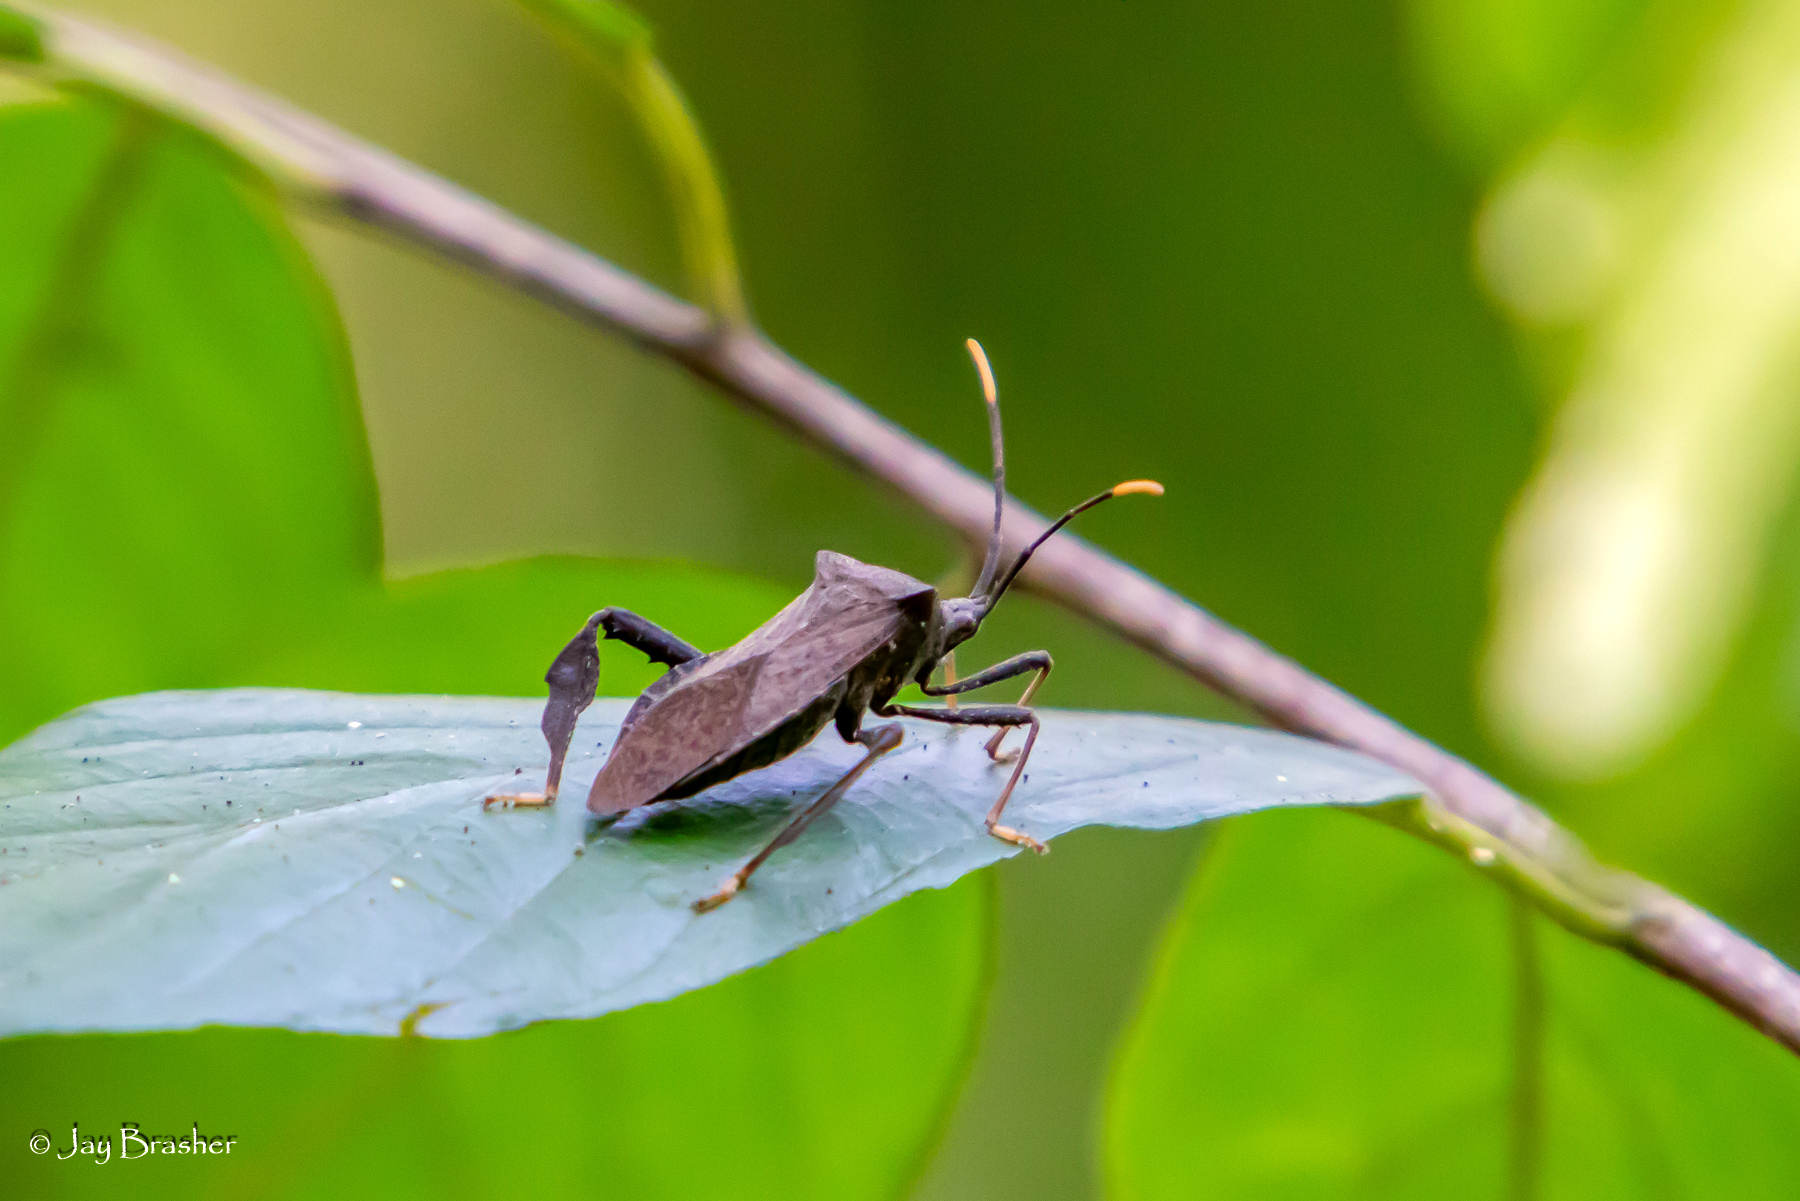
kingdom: Animalia
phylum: Arthropoda
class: Insecta
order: Hemiptera
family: Coreidae
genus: Acanthocephala
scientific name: Acanthocephala terminalis
